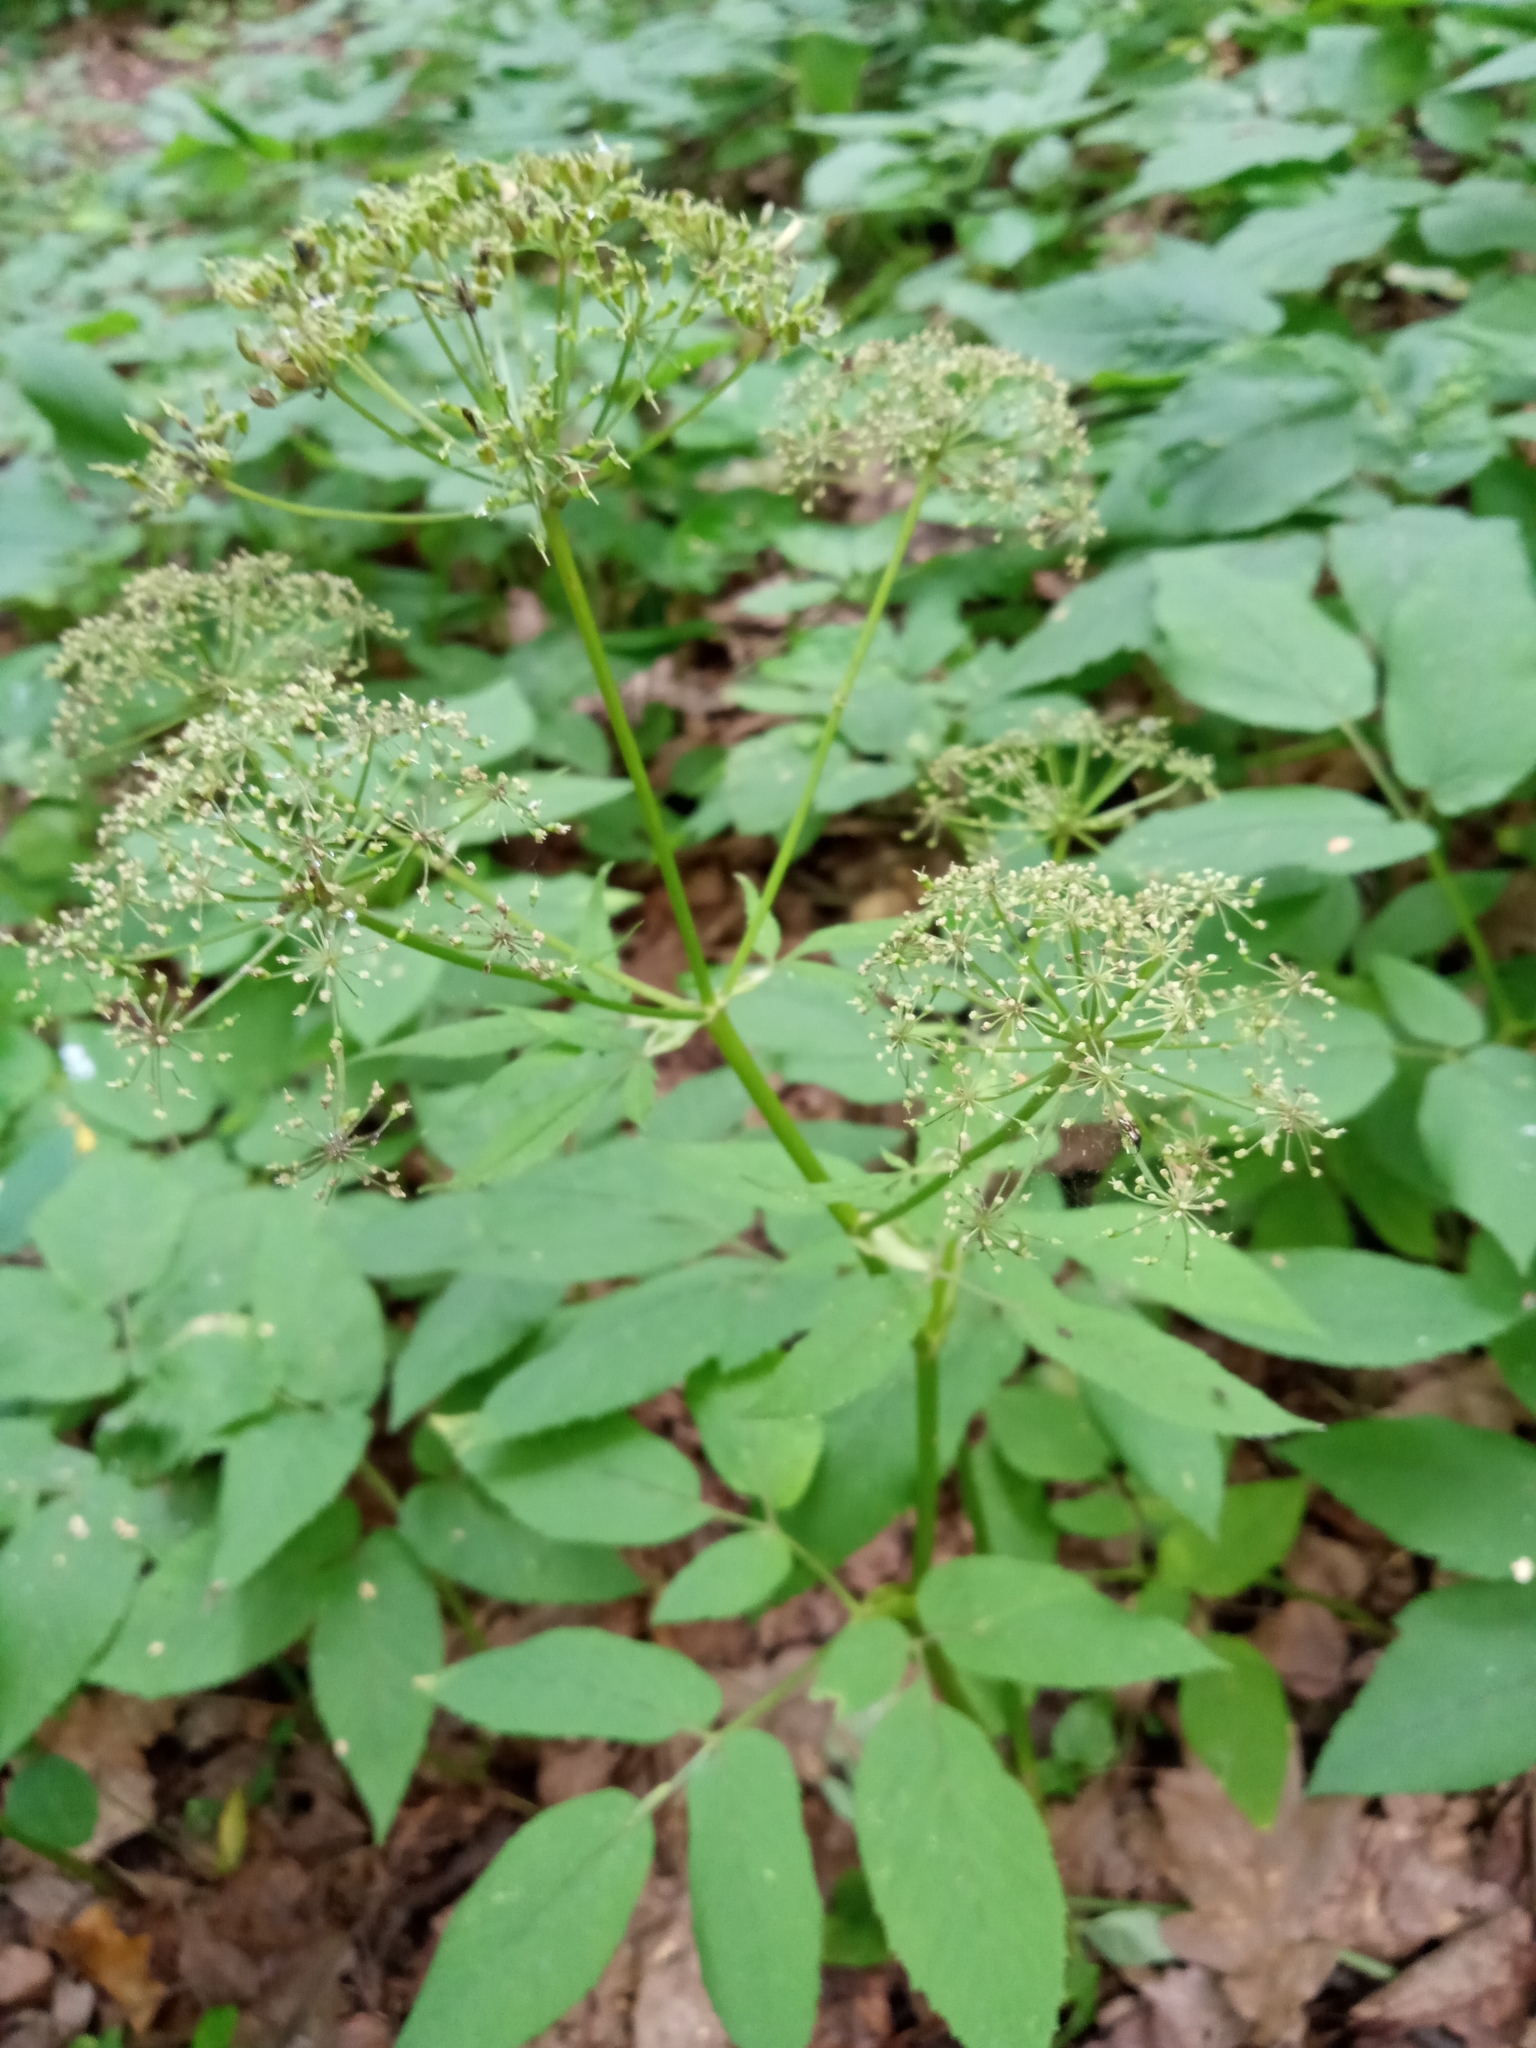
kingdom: Plantae
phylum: Tracheophyta
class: Magnoliopsida
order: Apiales
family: Apiaceae
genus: Aegopodium
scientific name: Aegopodium podagraria
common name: Ground-elder
